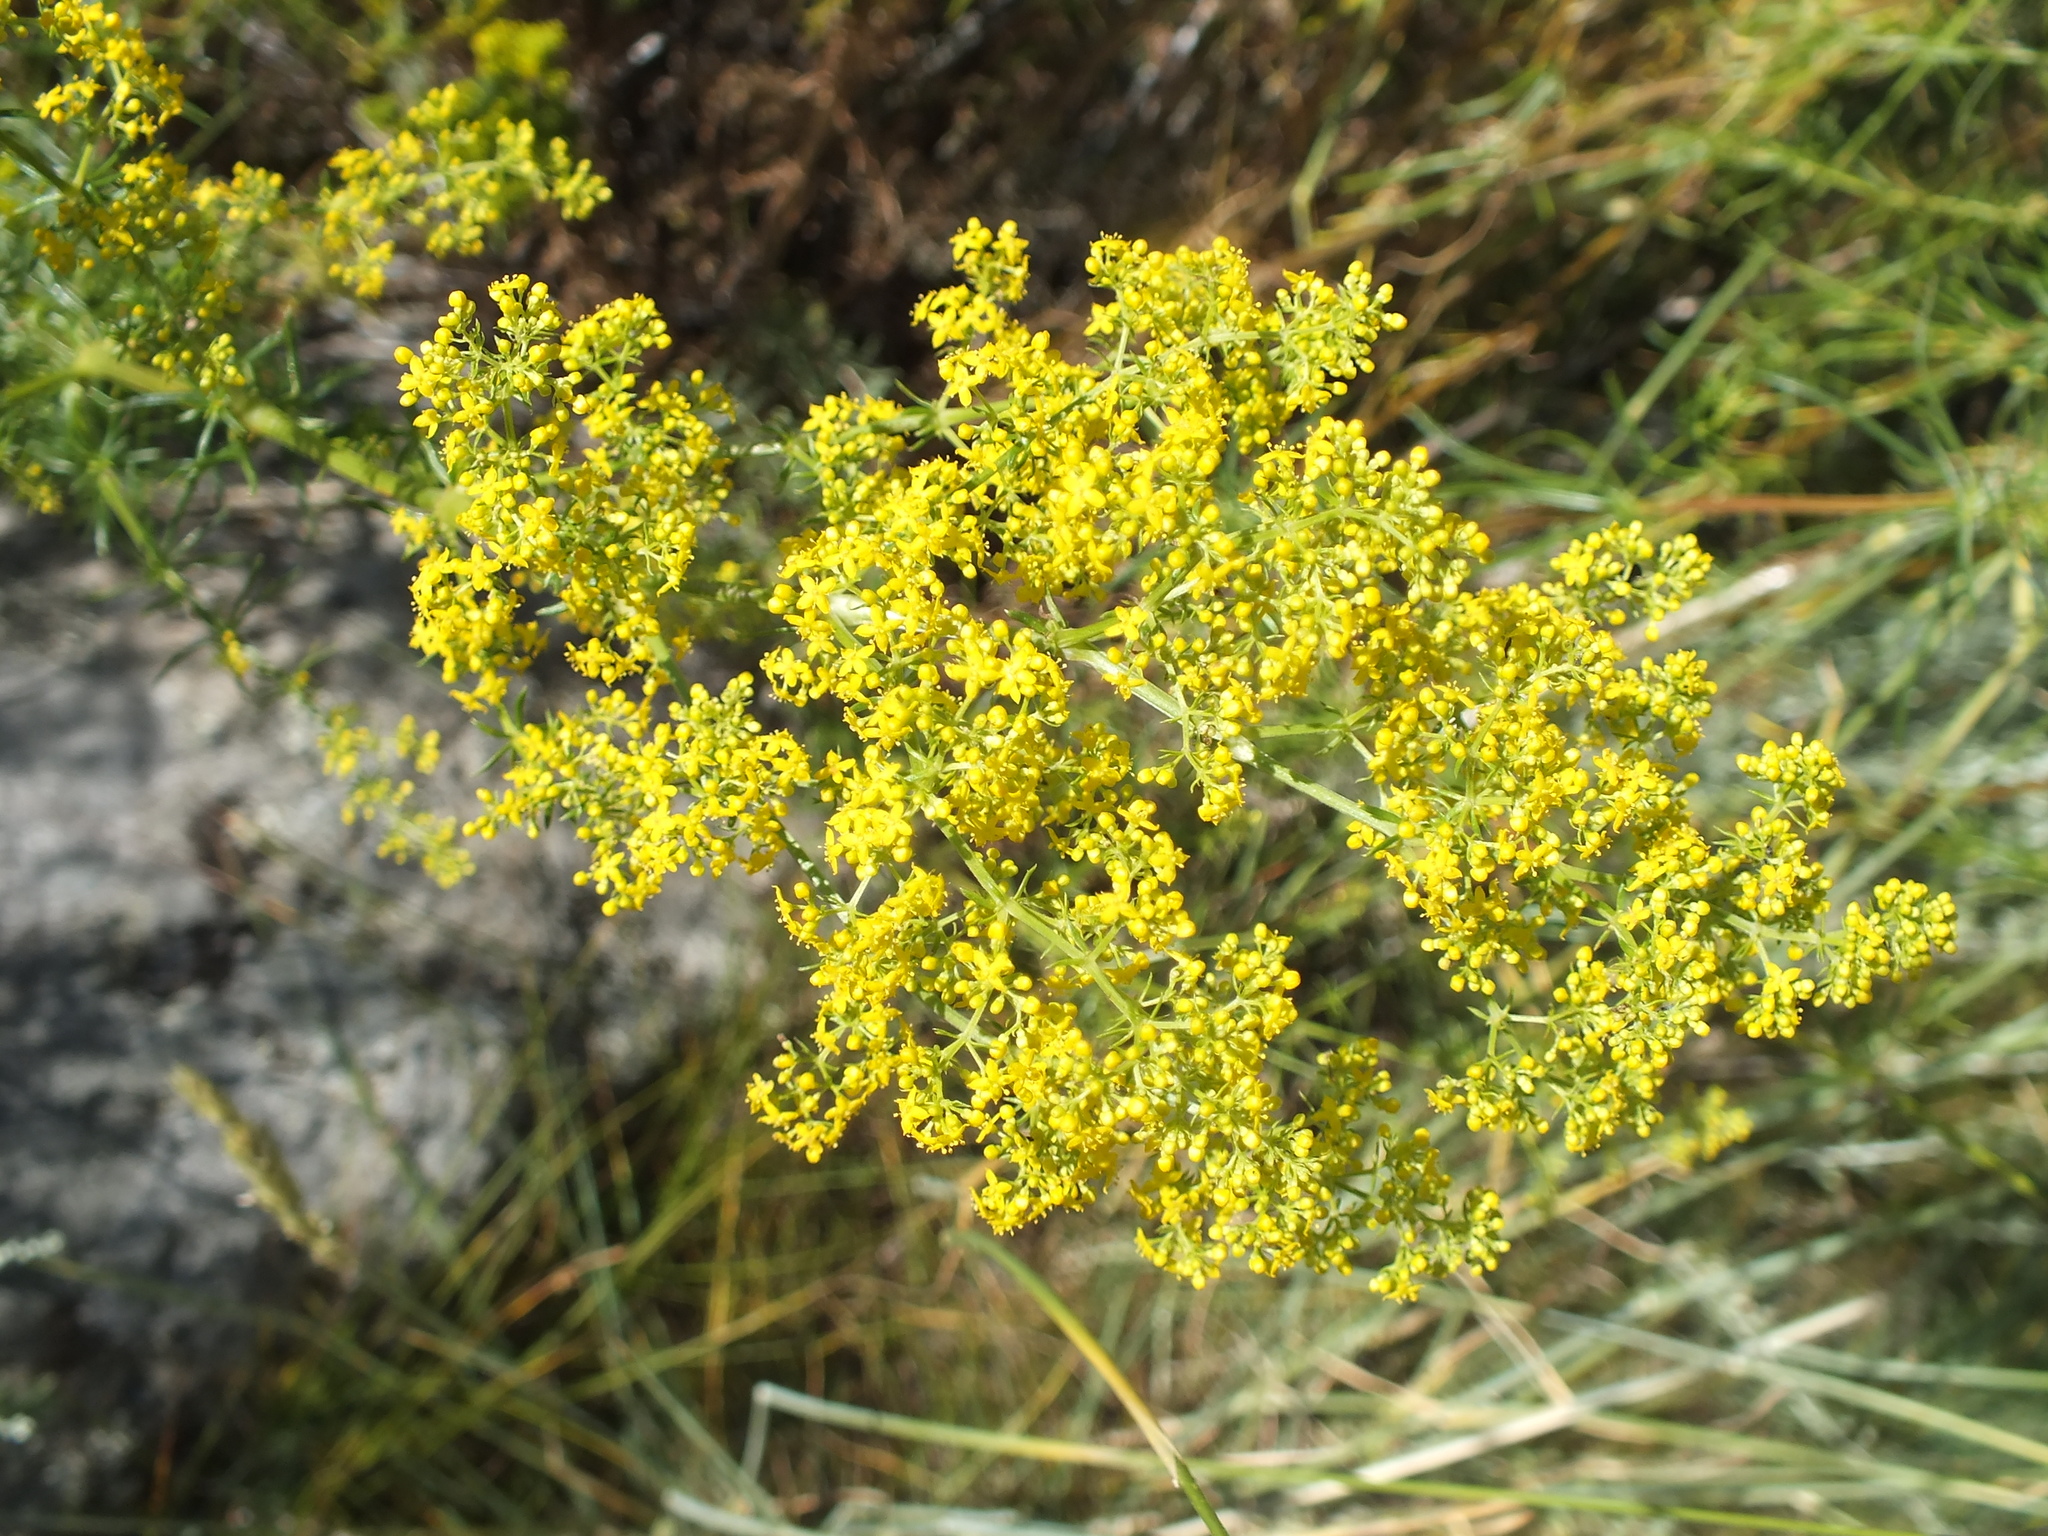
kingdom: Plantae
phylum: Tracheophyta
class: Magnoliopsida
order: Gentianales
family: Rubiaceae
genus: Galium
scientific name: Galium verum
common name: Lady's bedstraw
